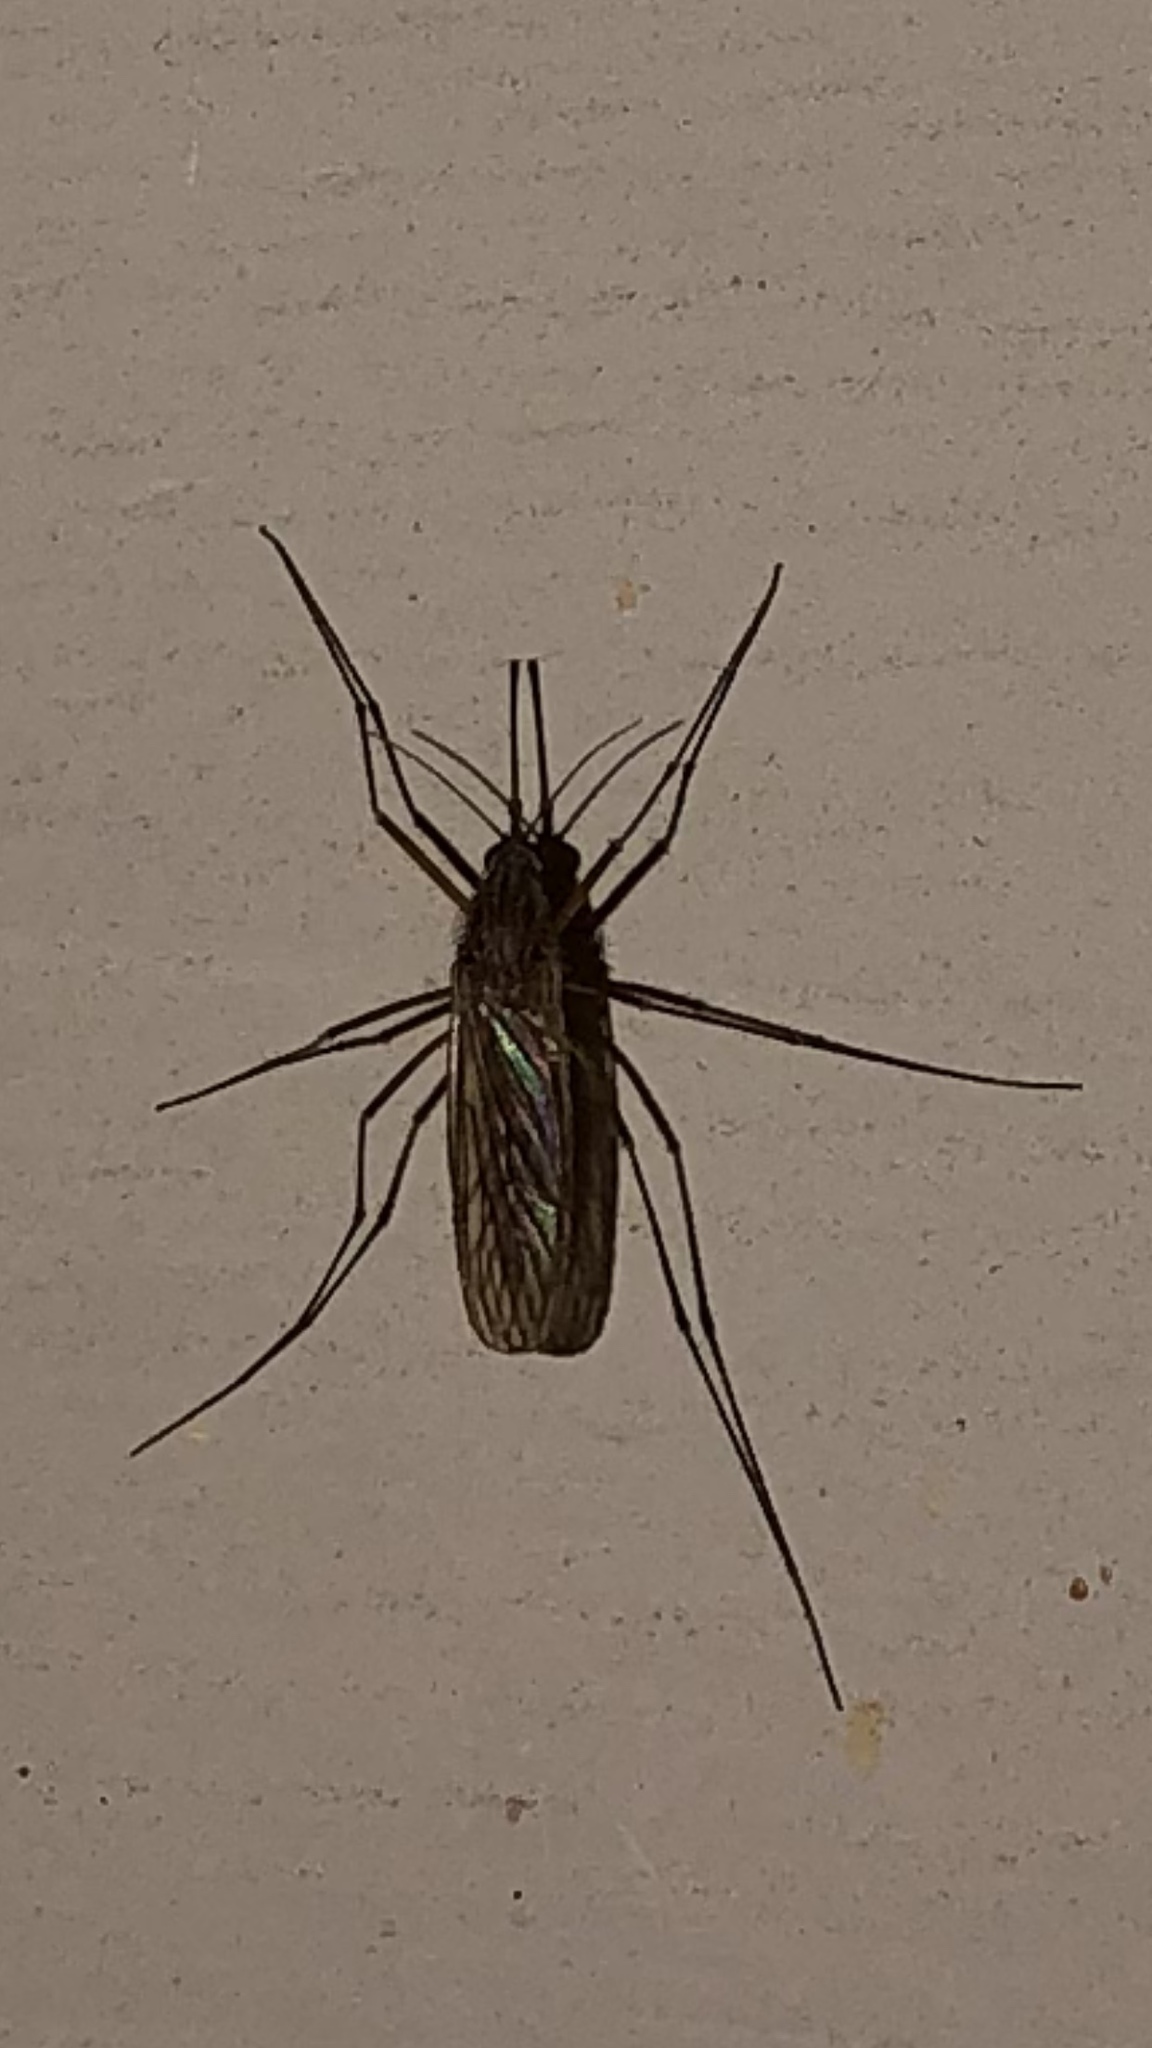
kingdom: Animalia
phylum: Arthropoda
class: Insecta
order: Diptera
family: Culicidae
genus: Culiseta
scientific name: Culiseta inornata
